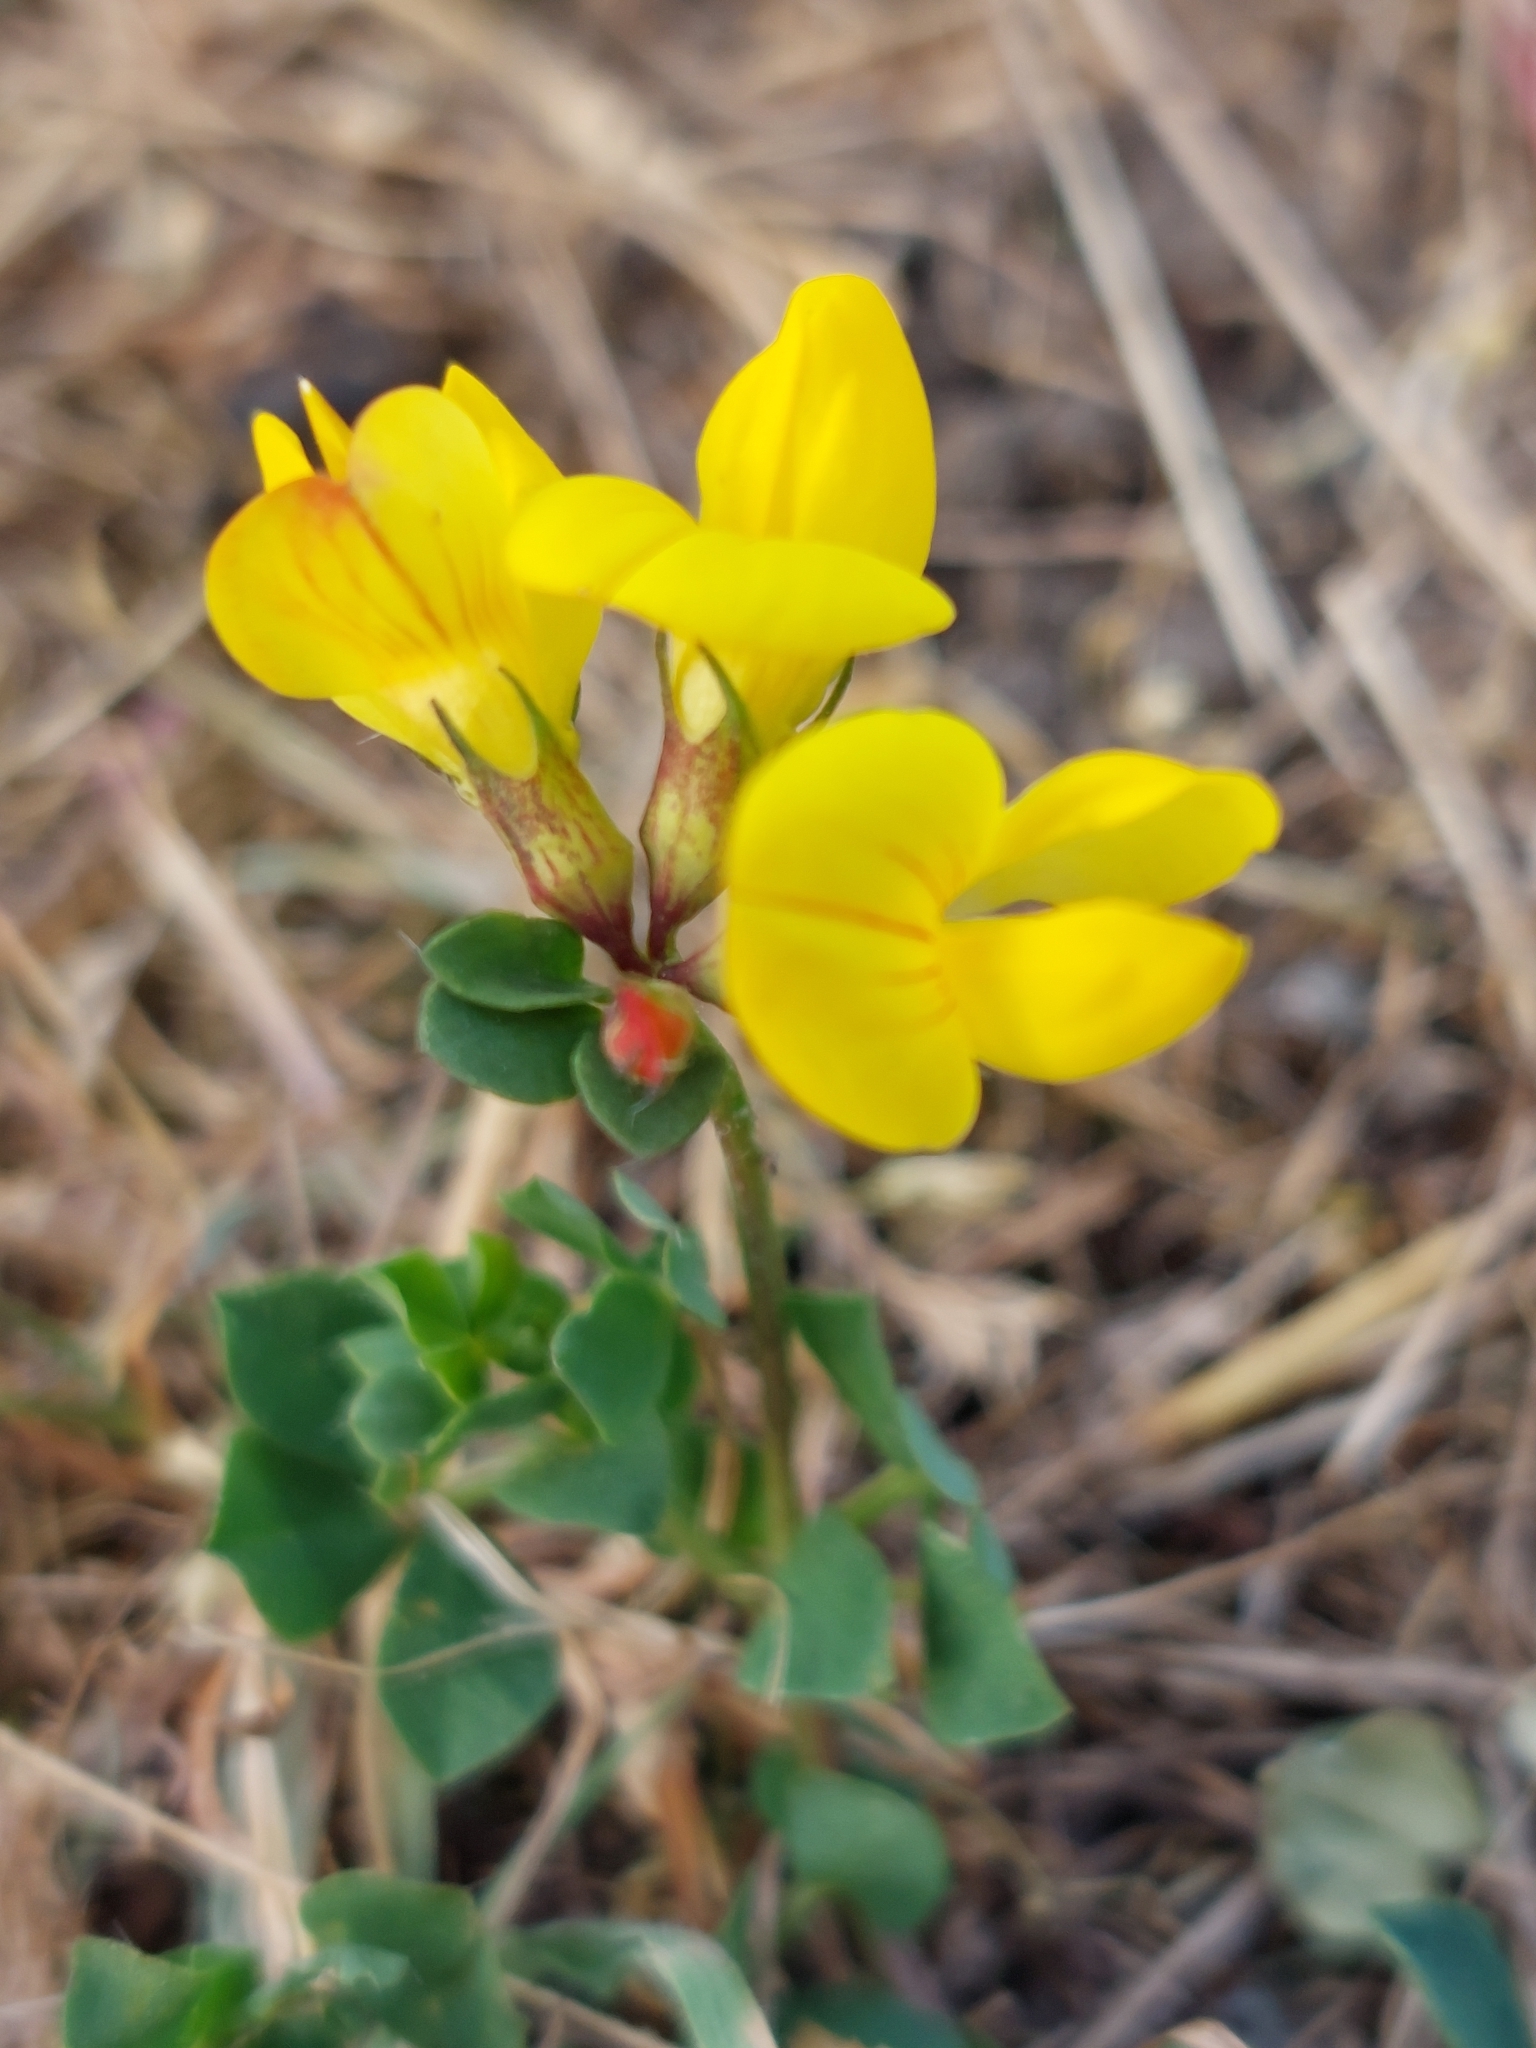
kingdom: Plantae
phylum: Tracheophyta
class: Magnoliopsida
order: Fabales
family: Fabaceae
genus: Lotus
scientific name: Lotus corniculatus
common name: Common bird's-foot-trefoil
